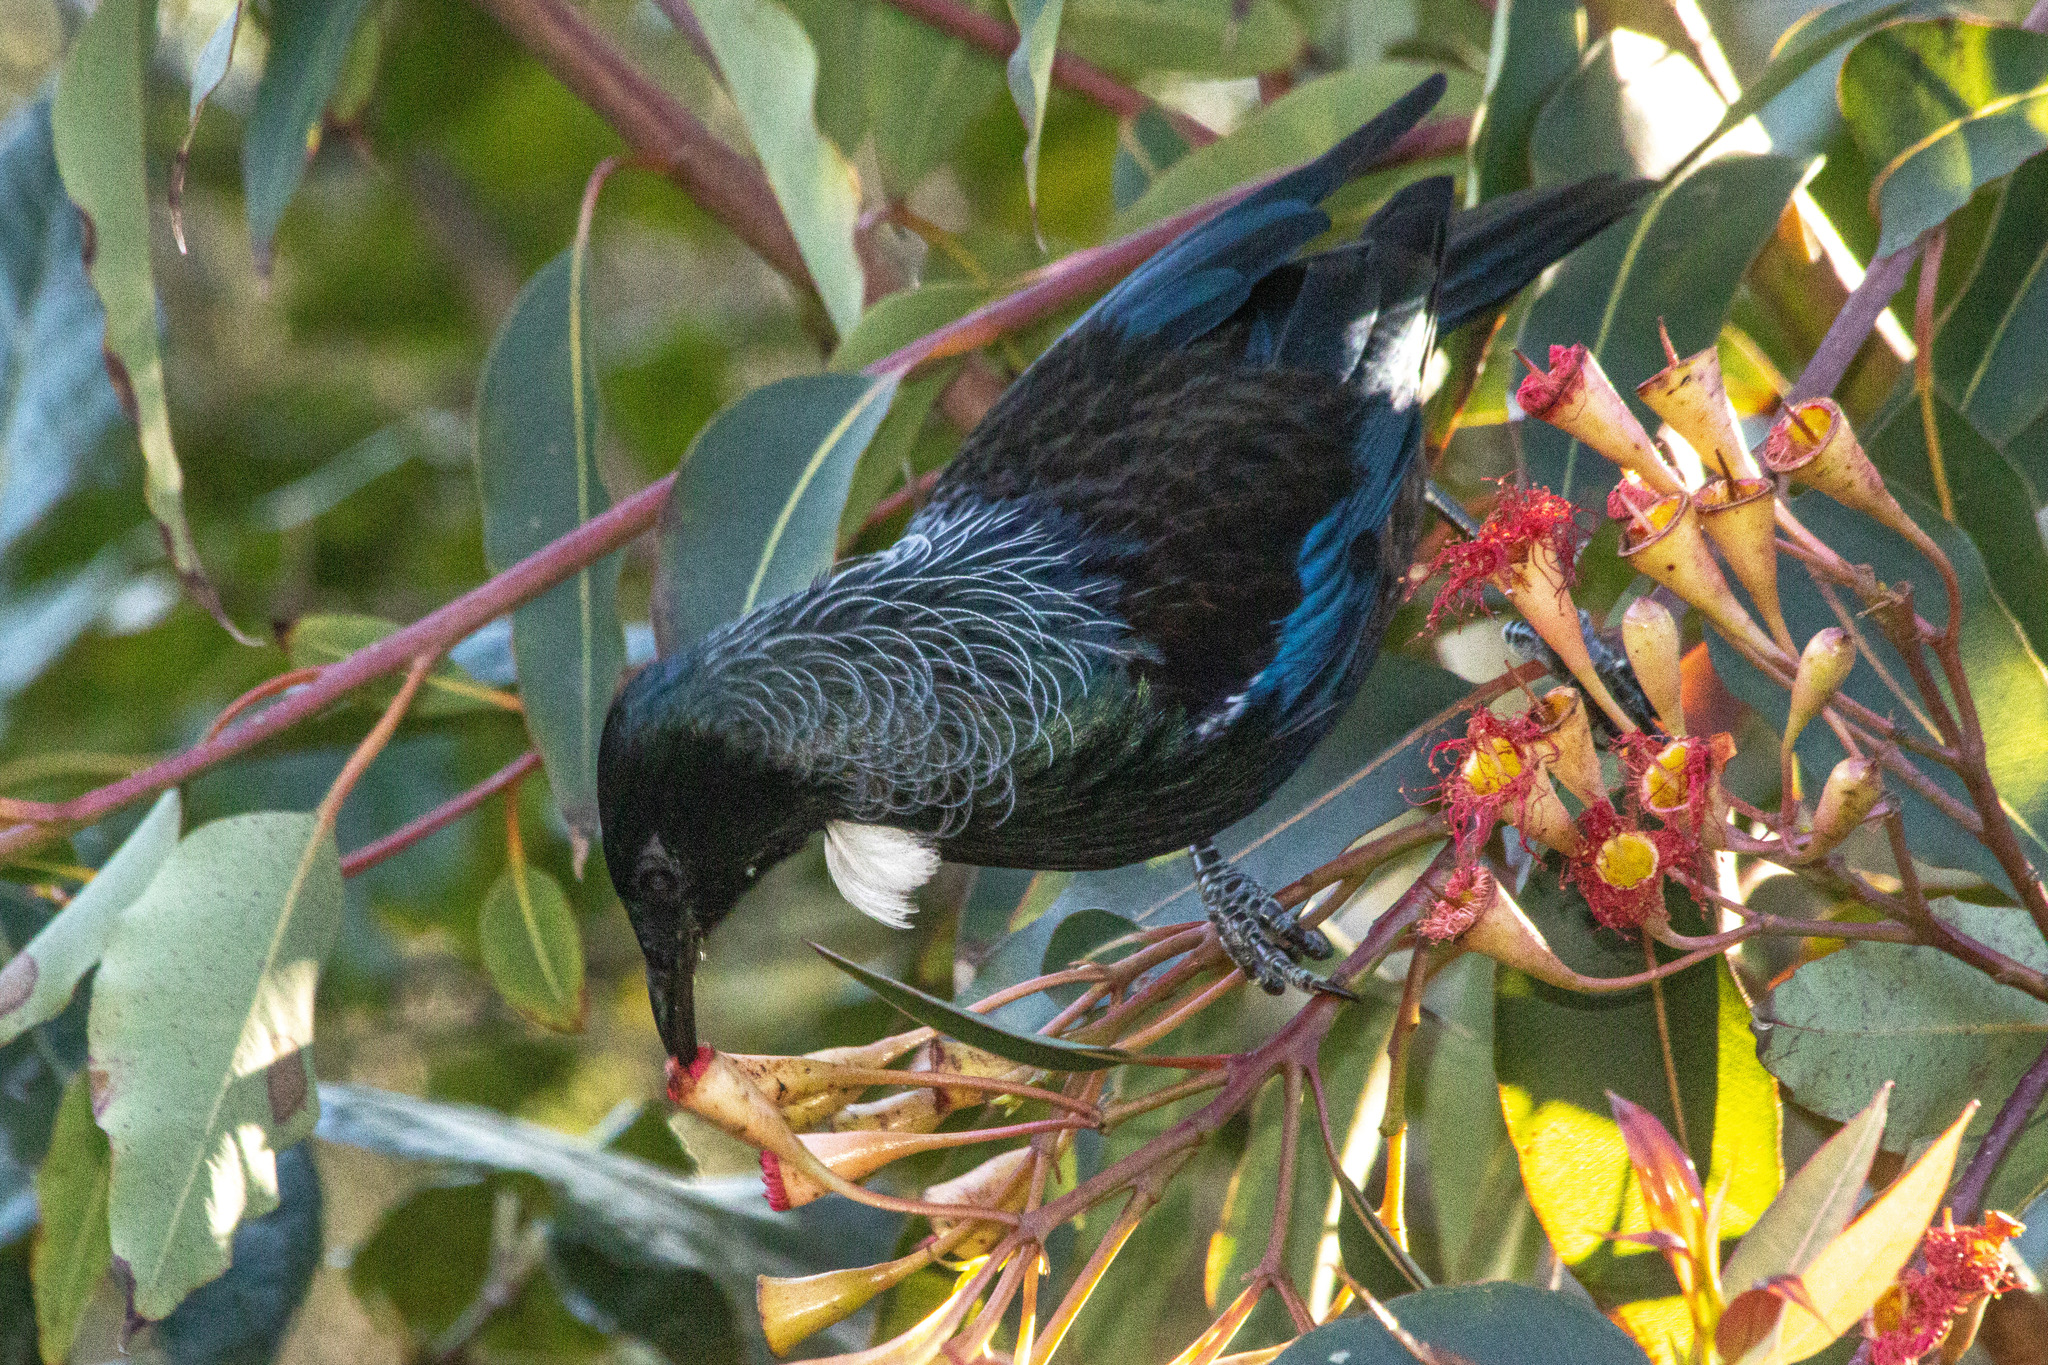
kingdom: Animalia
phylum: Chordata
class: Aves
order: Passeriformes
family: Meliphagidae
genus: Prosthemadera
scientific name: Prosthemadera novaeseelandiae
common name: Tui
